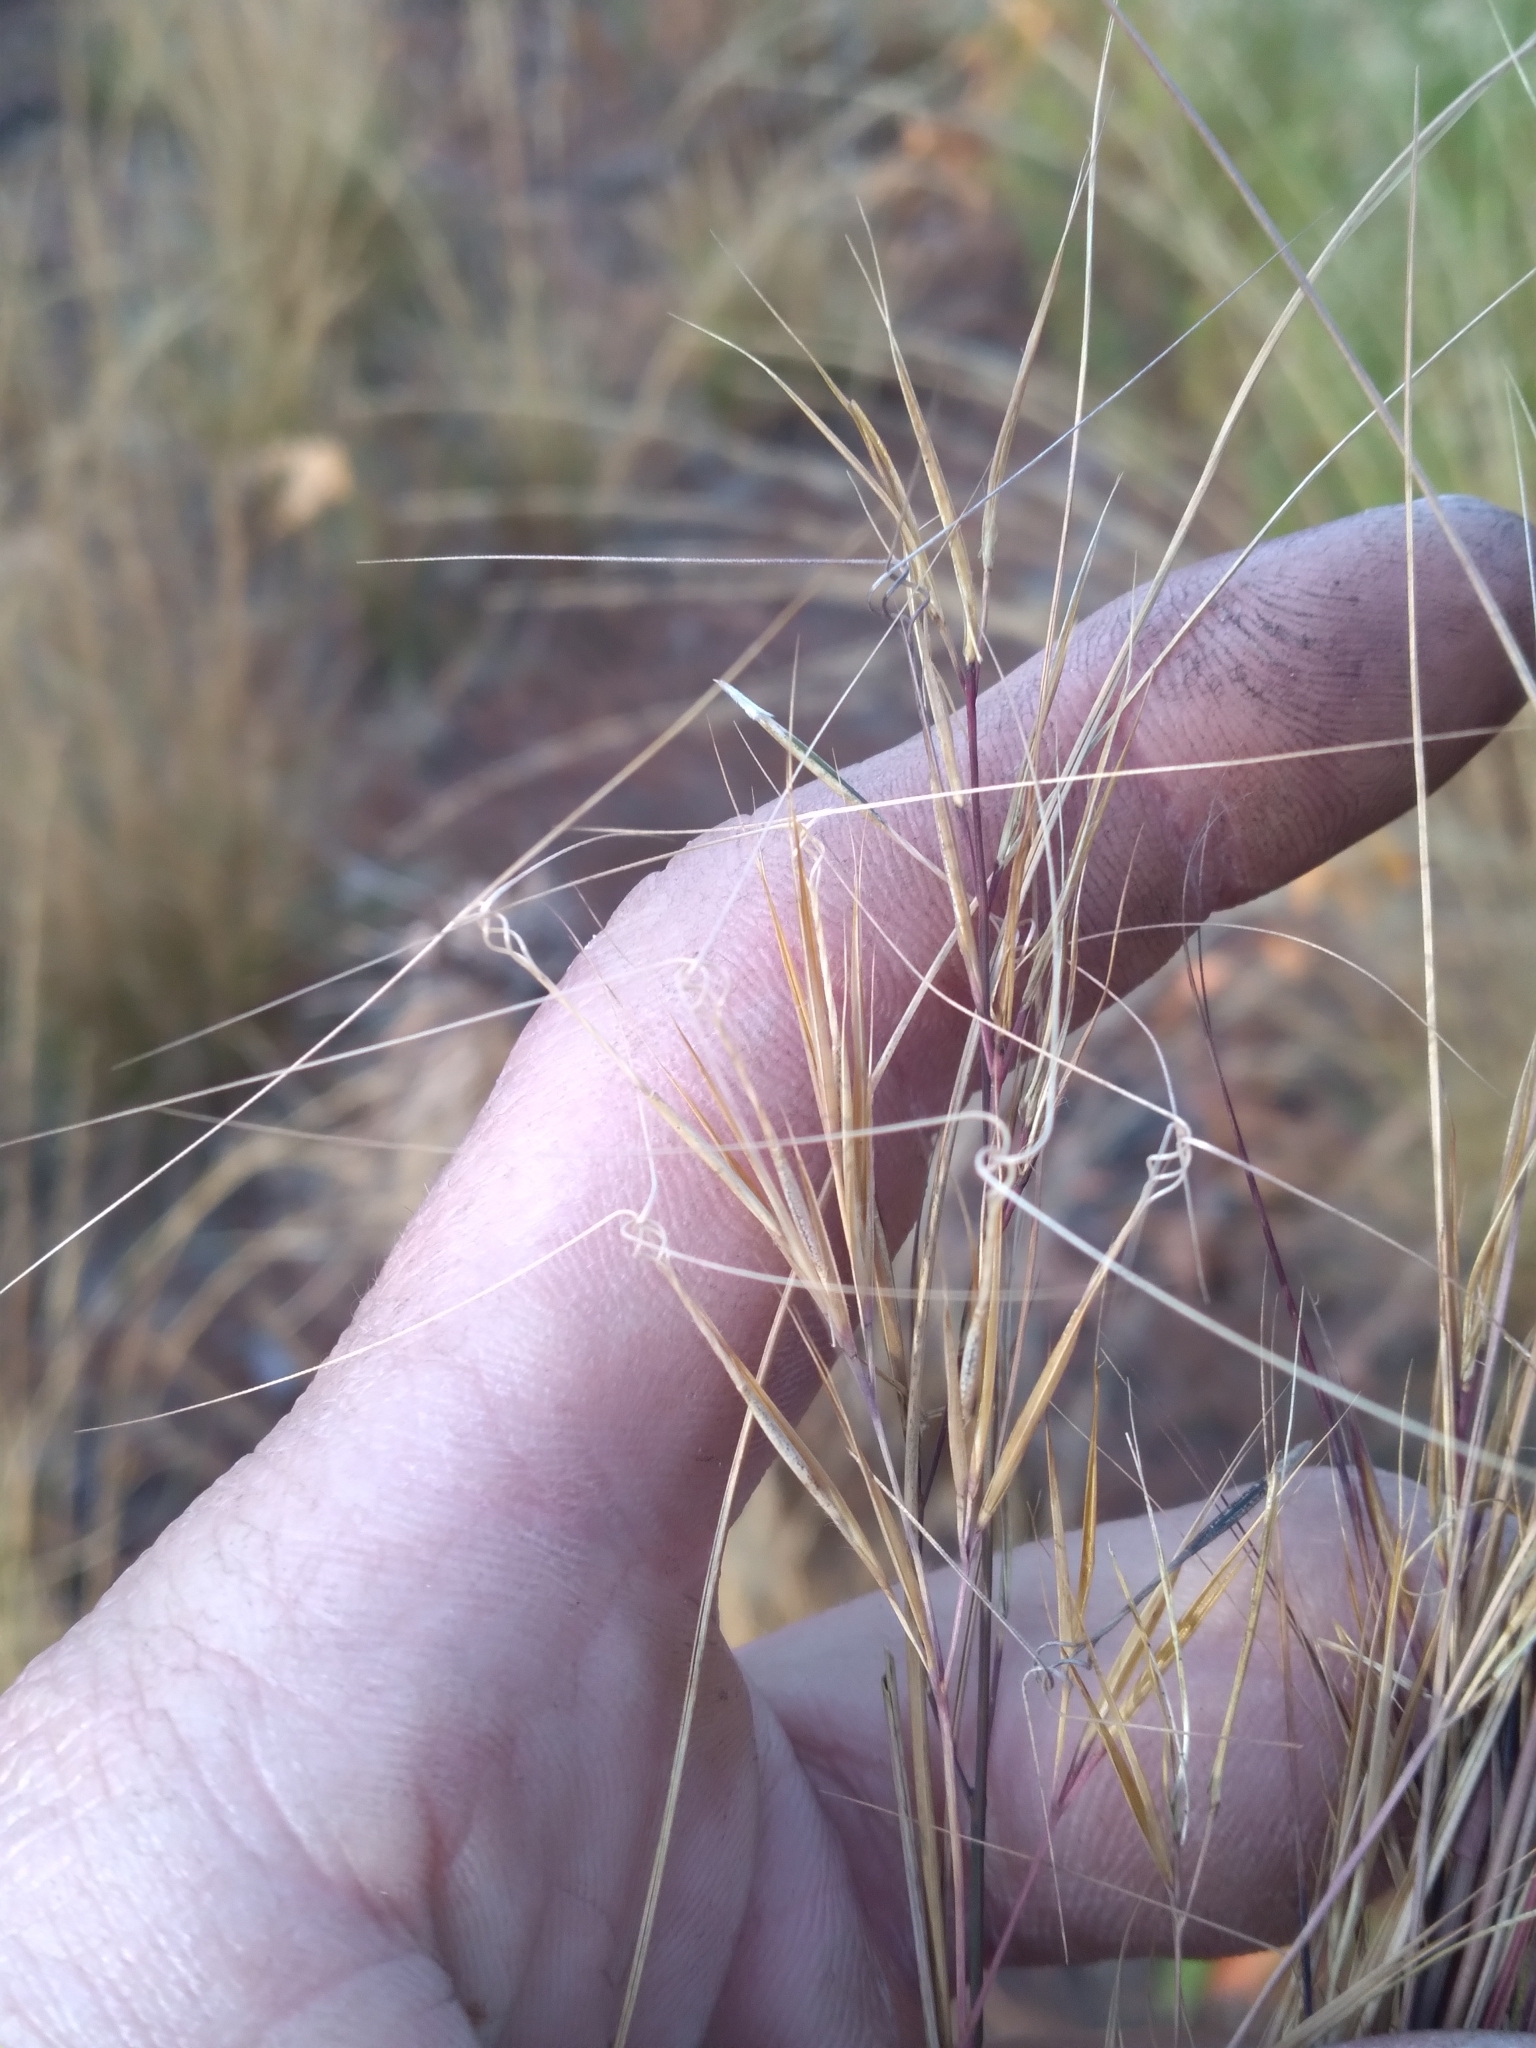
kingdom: Plantae
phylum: Tracheophyta
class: Liliopsida
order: Poales
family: Poaceae
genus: Aristida
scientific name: Aristida tuberculosa
